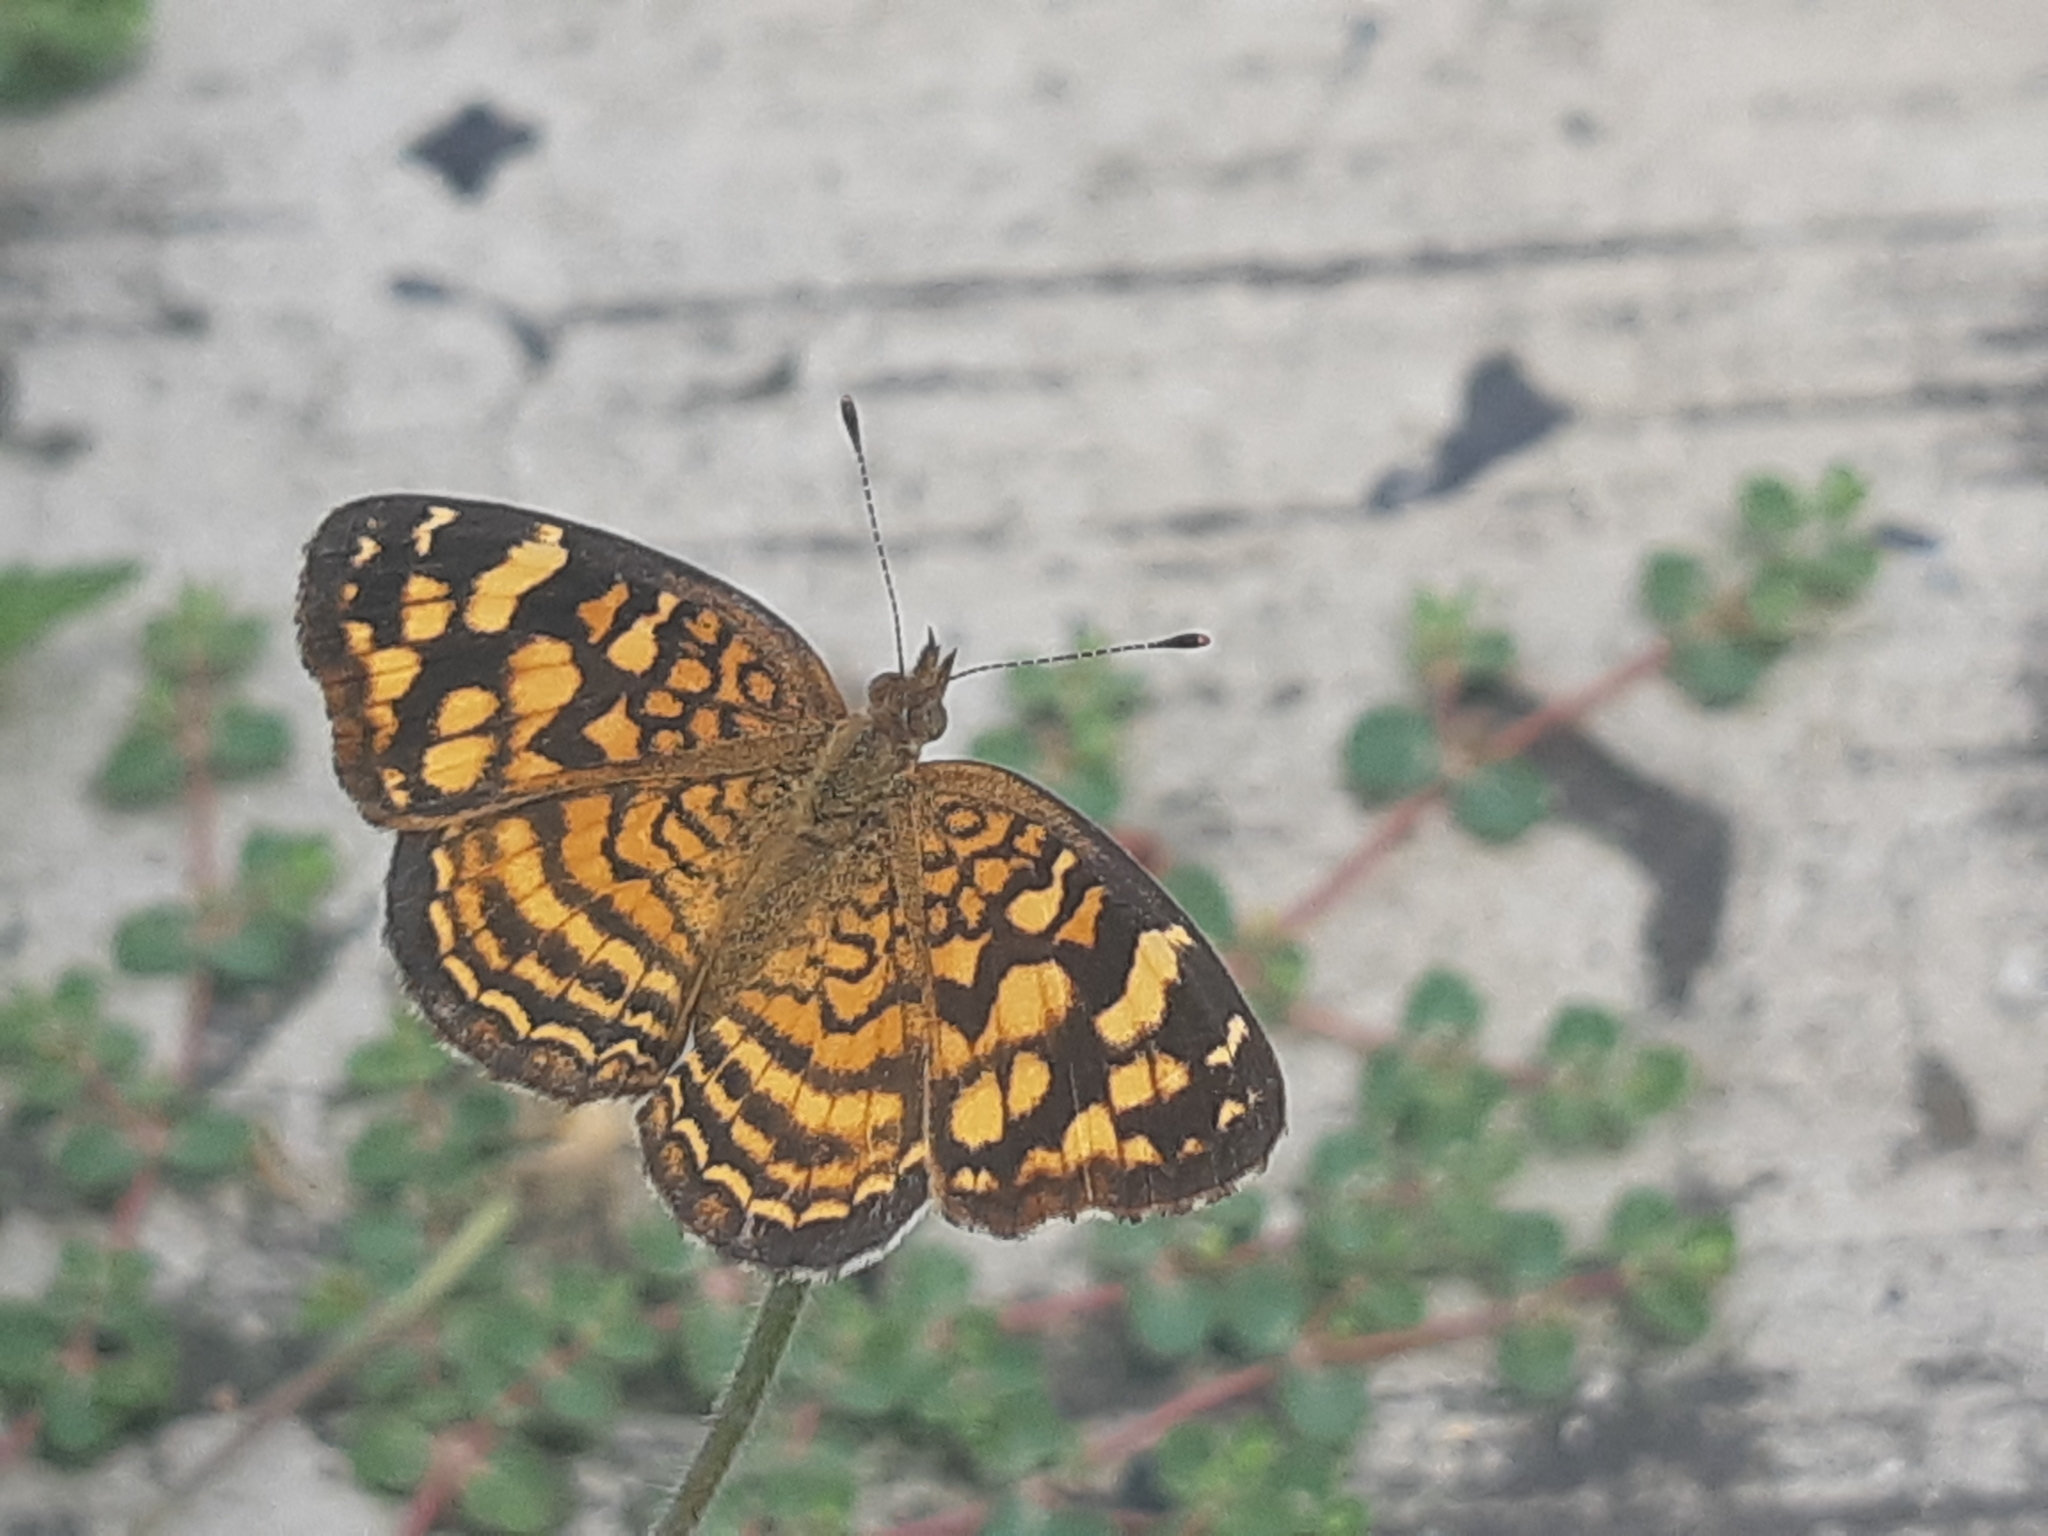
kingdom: Animalia
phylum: Arthropoda
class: Insecta
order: Lepidoptera
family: Nymphalidae
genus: Anthanassa
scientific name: Anthanassa hermas
